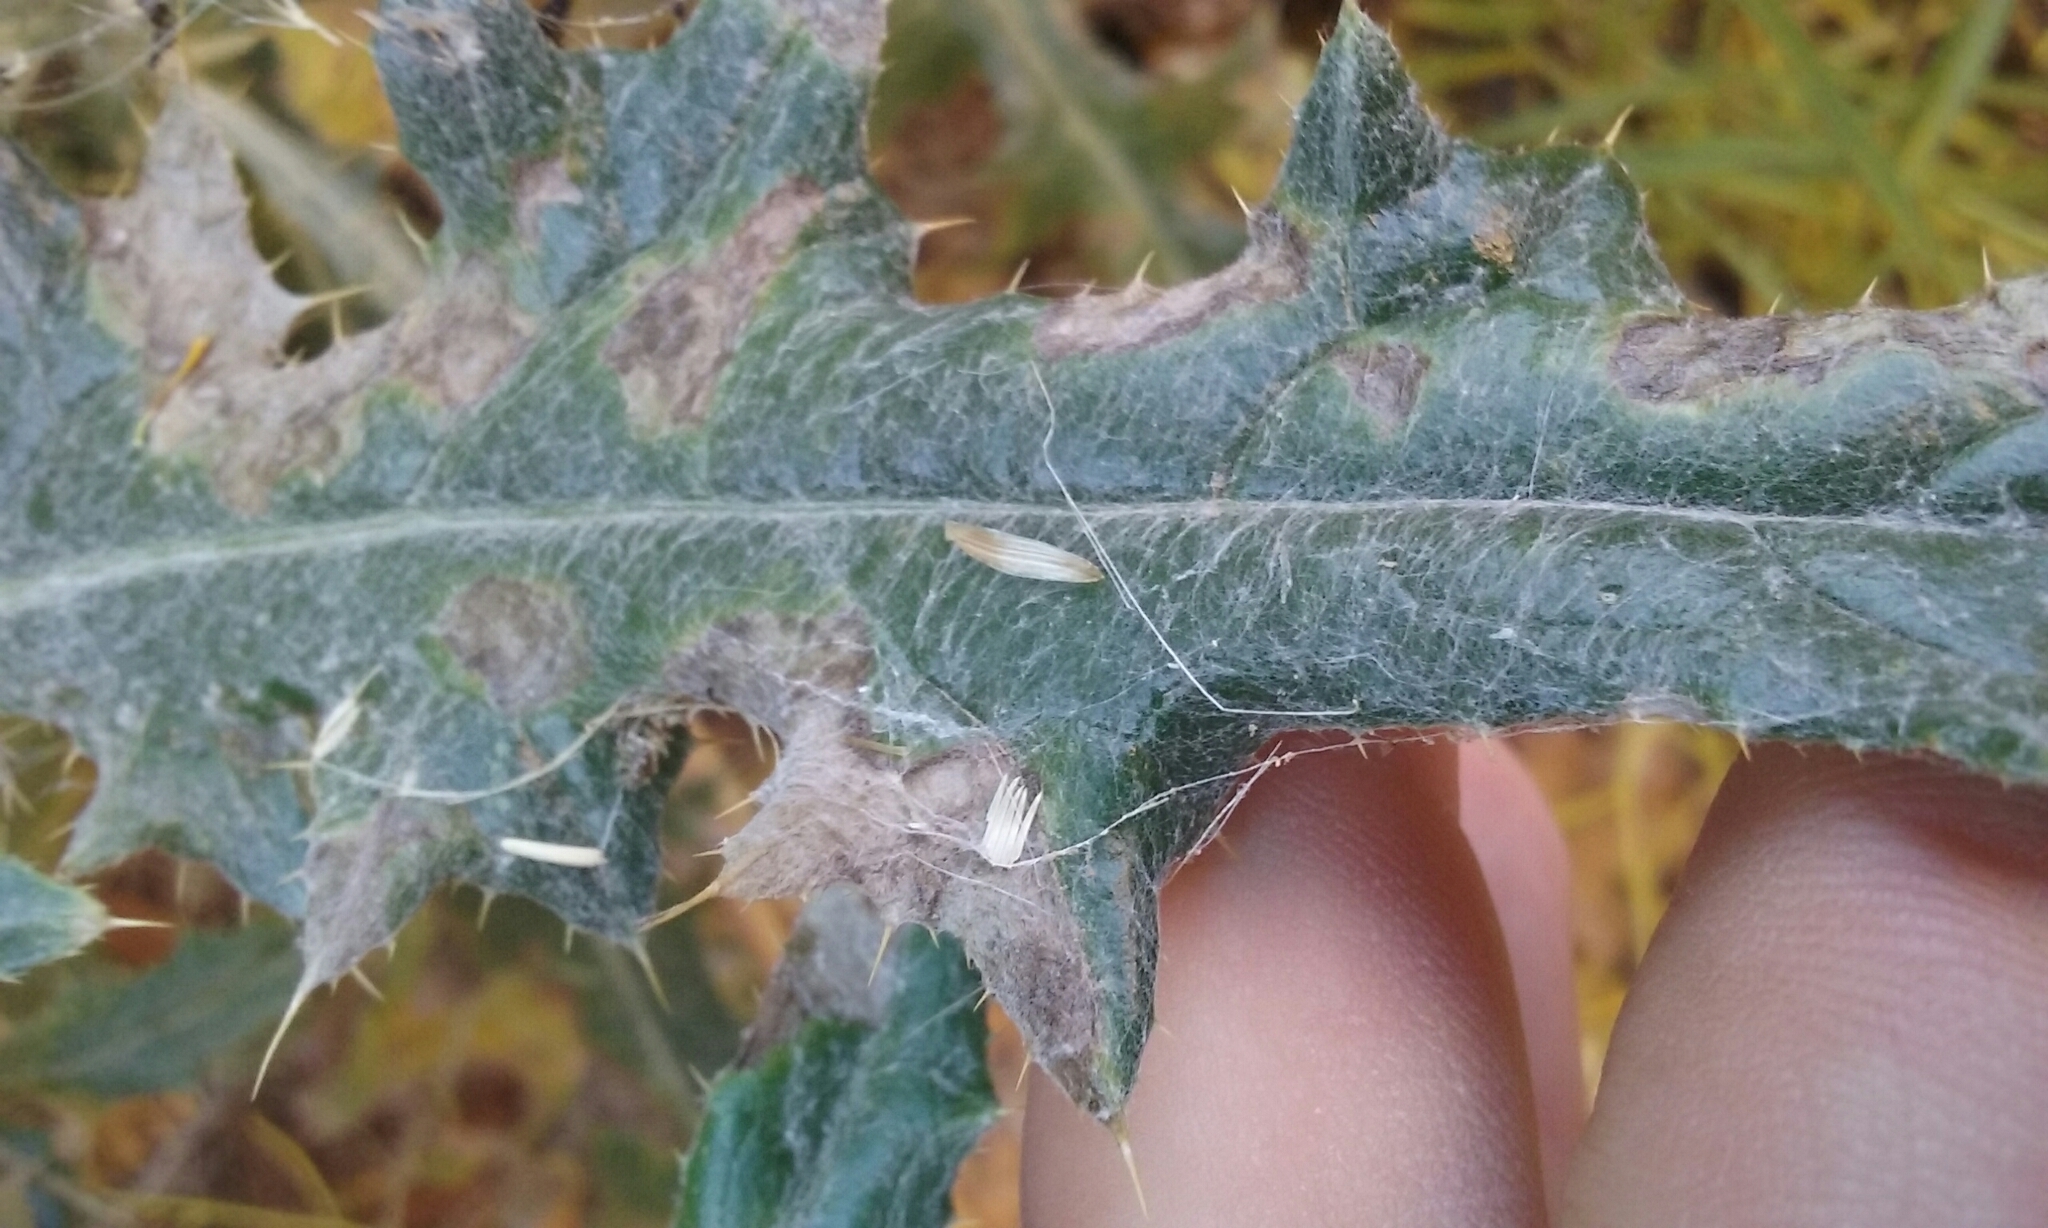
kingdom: Plantae
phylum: Tracheophyta
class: Magnoliopsida
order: Asterales
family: Asteraceae
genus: Cirsium
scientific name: Cirsium arizonicum
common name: Arizona thistle
